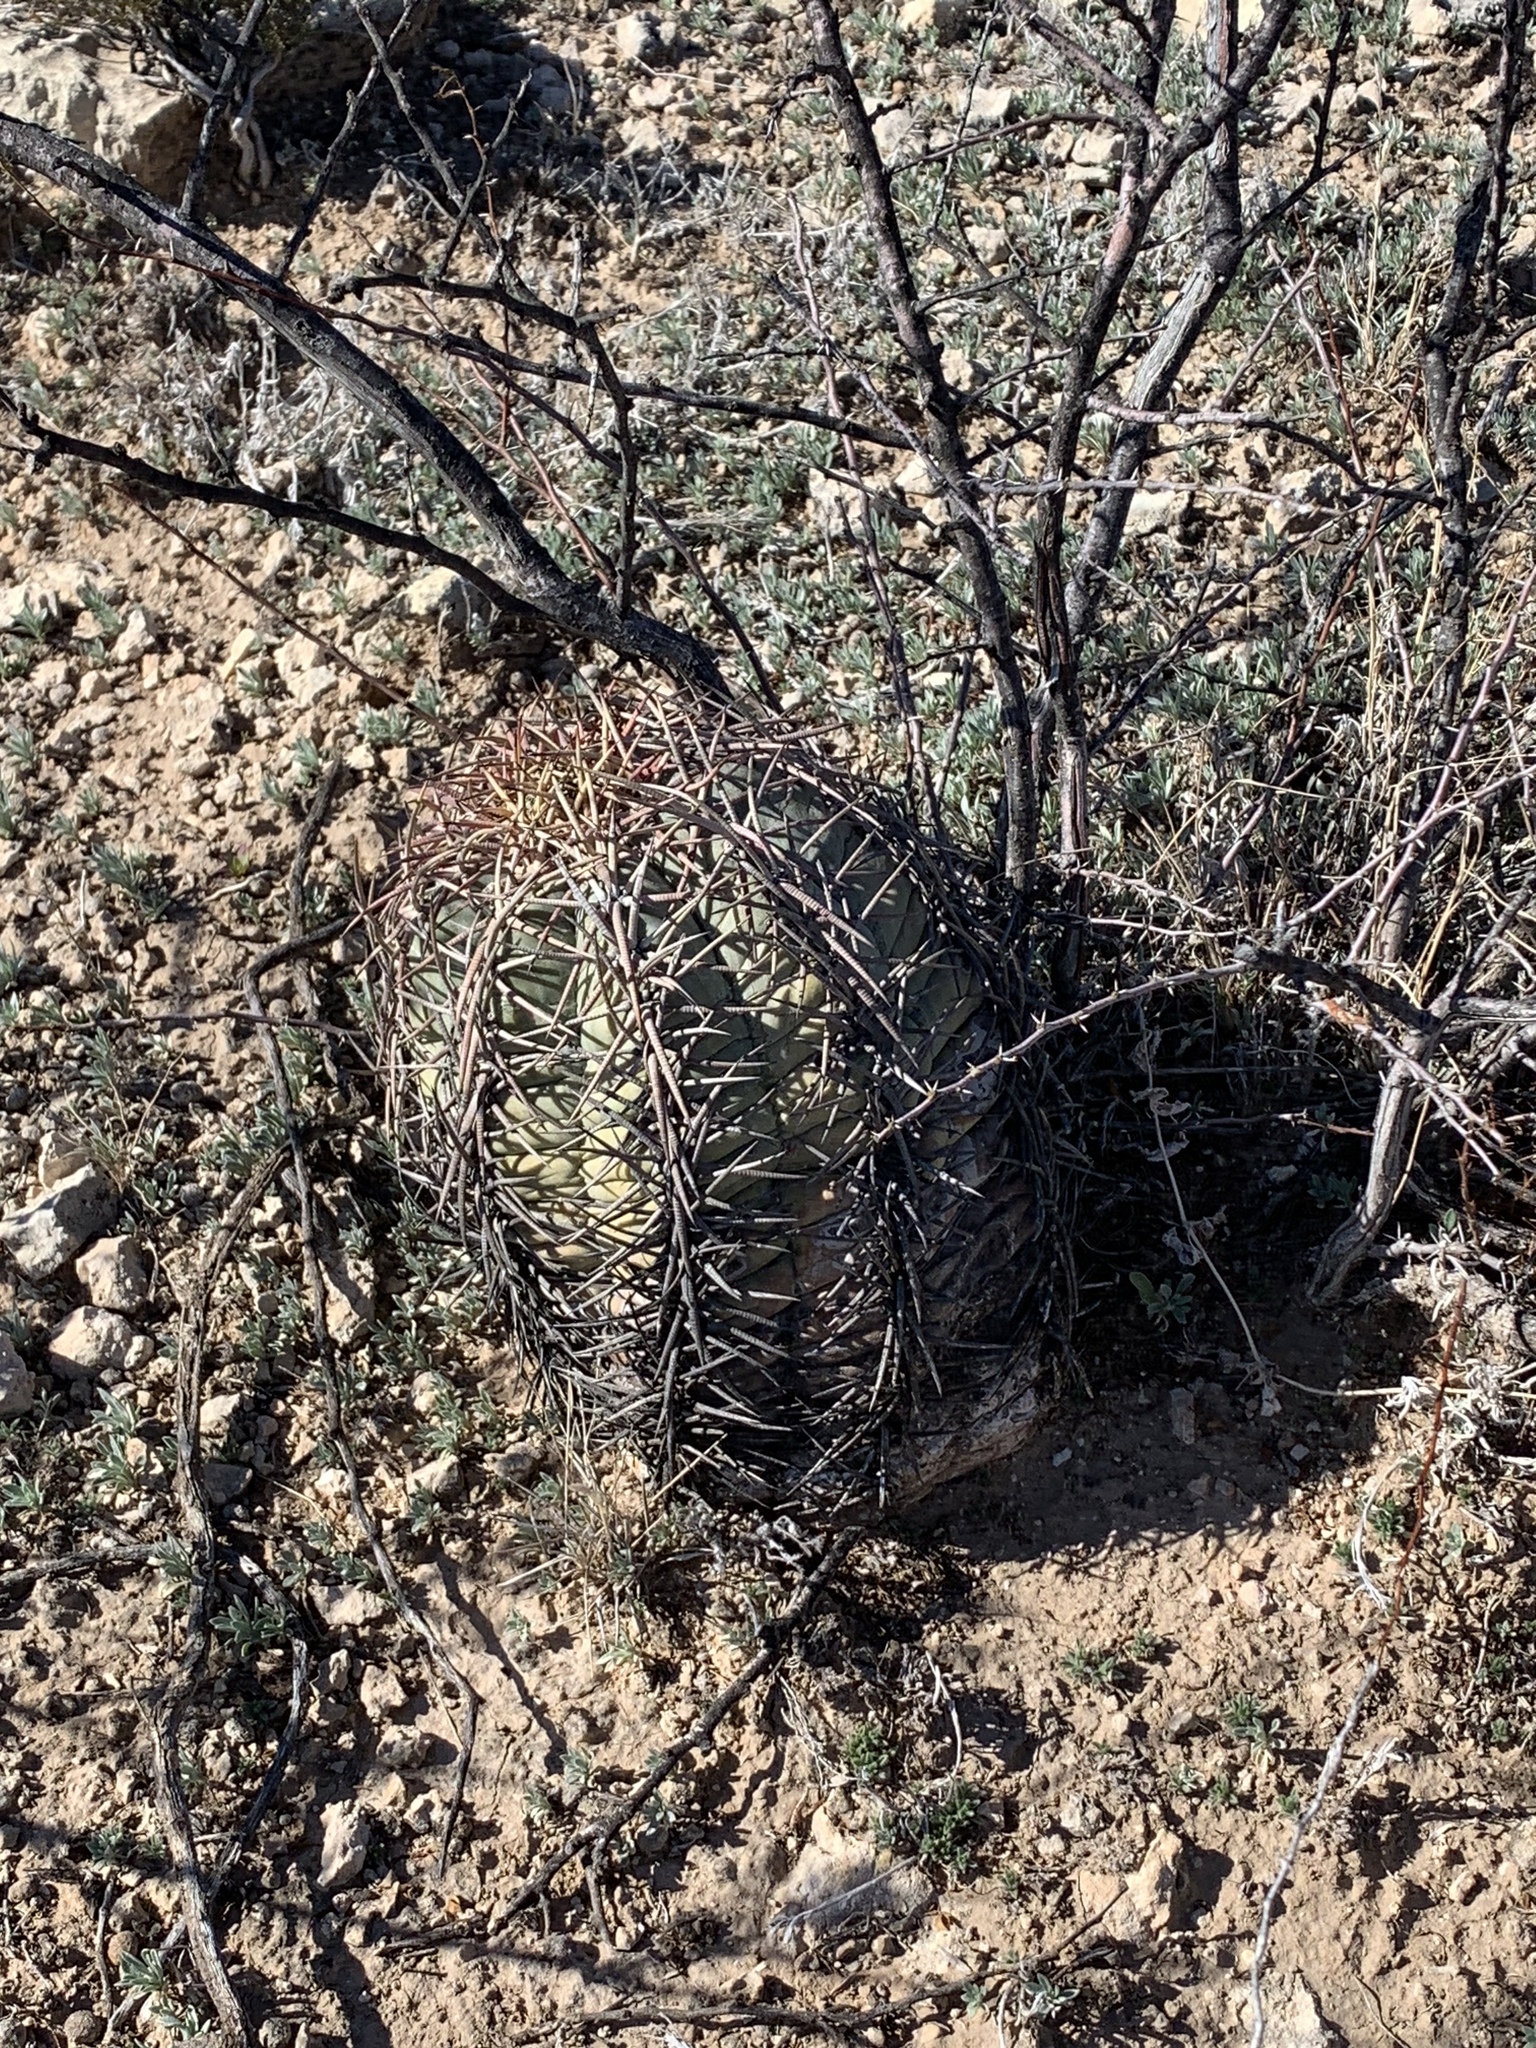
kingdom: Plantae
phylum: Tracheophyta
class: Magnoliopsida
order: Caryophyllales
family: Cactaceae
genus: Echinocactus
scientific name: Echinocactus horizonthalonius
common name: Devilshead
